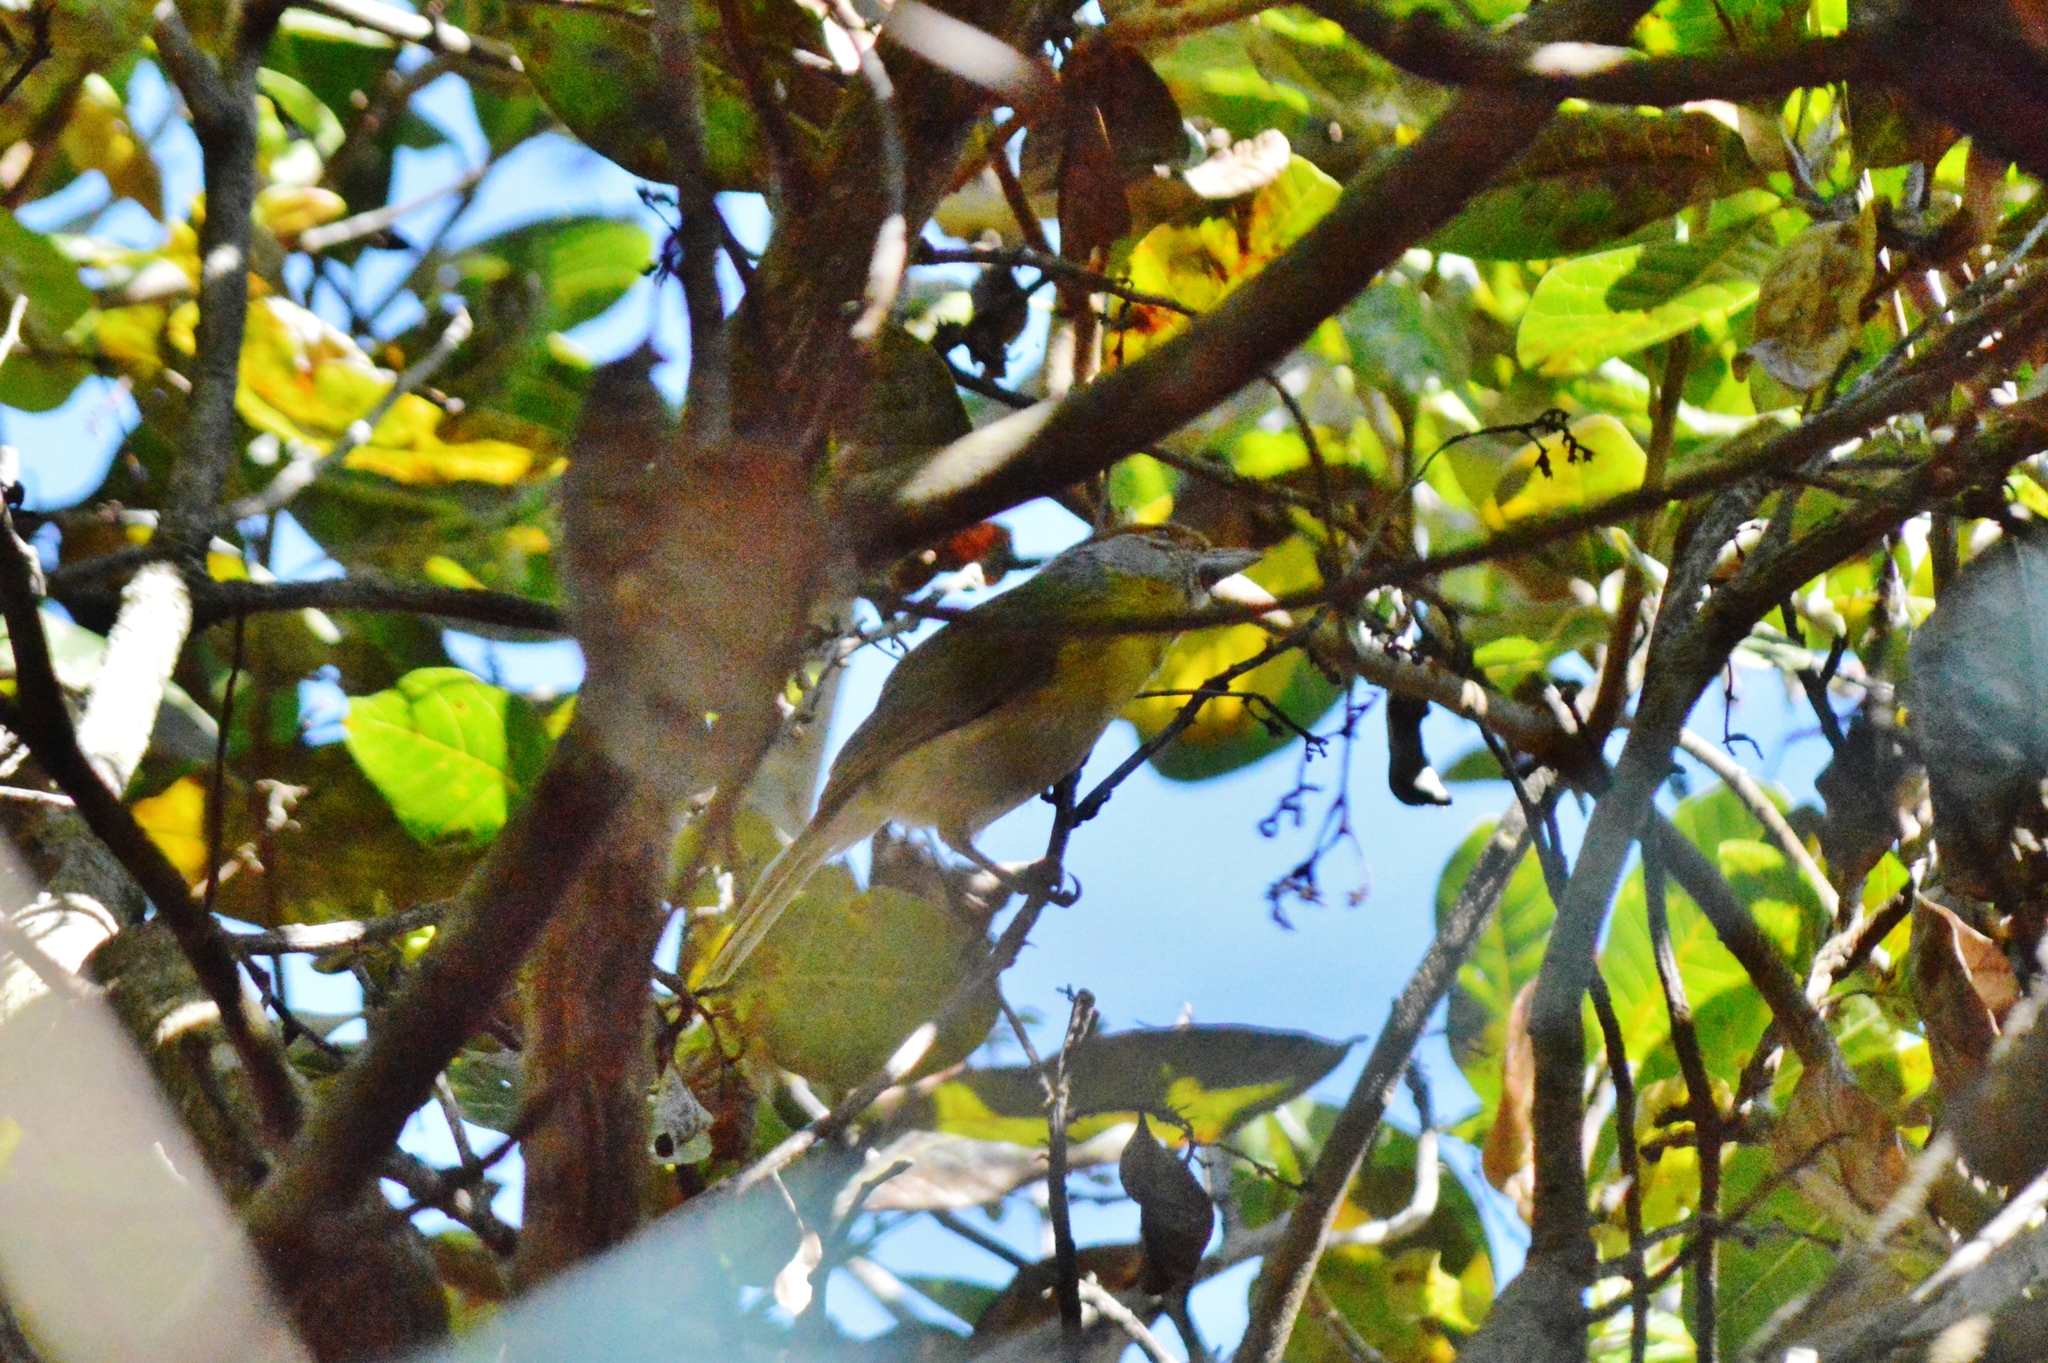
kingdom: Animalia
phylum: Chordata
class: Aves
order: Passeriformes
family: Vireonidae
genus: Cyclarhis
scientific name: Cyclarhis gujanensis
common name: Rufous-browed peppershrike
